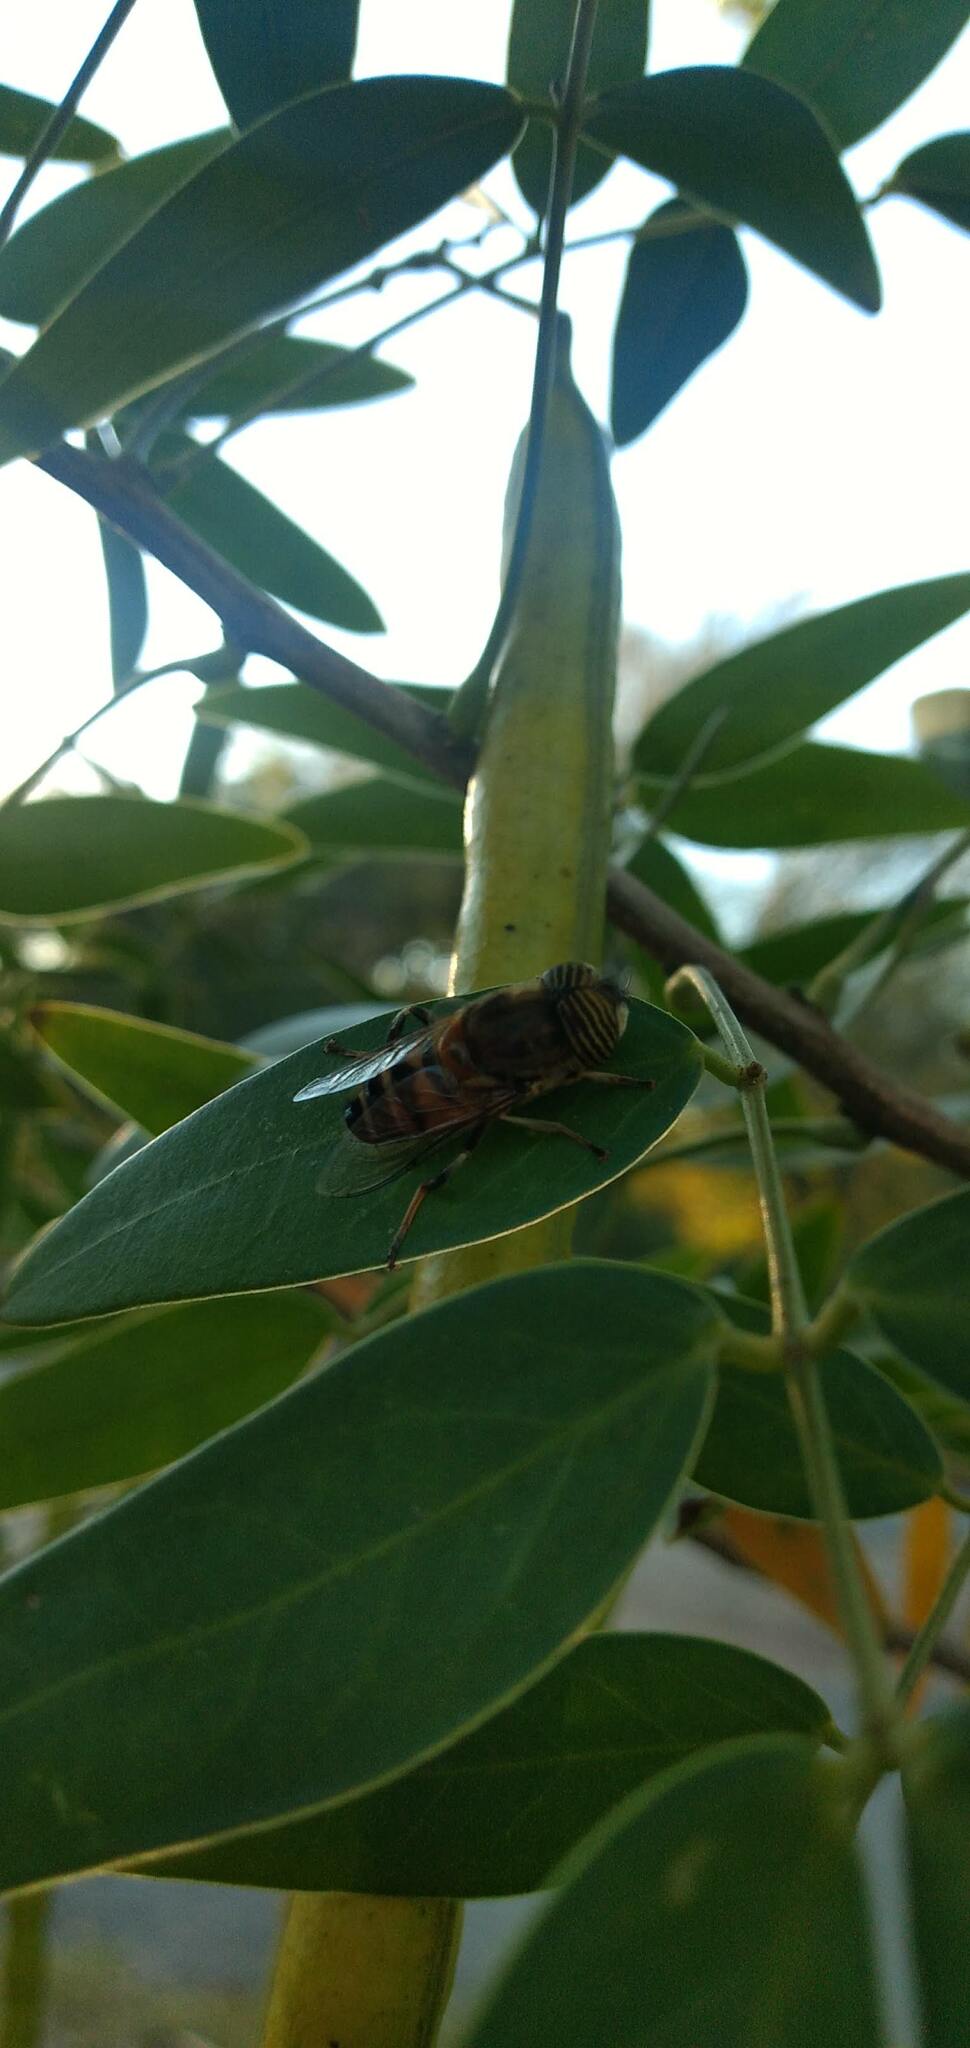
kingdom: Animalia
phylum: Arthropoda
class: Insecta
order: Diptera
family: Syrphidae
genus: Eristalinus
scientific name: Eristalinus taeniops
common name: Syrphid fly
